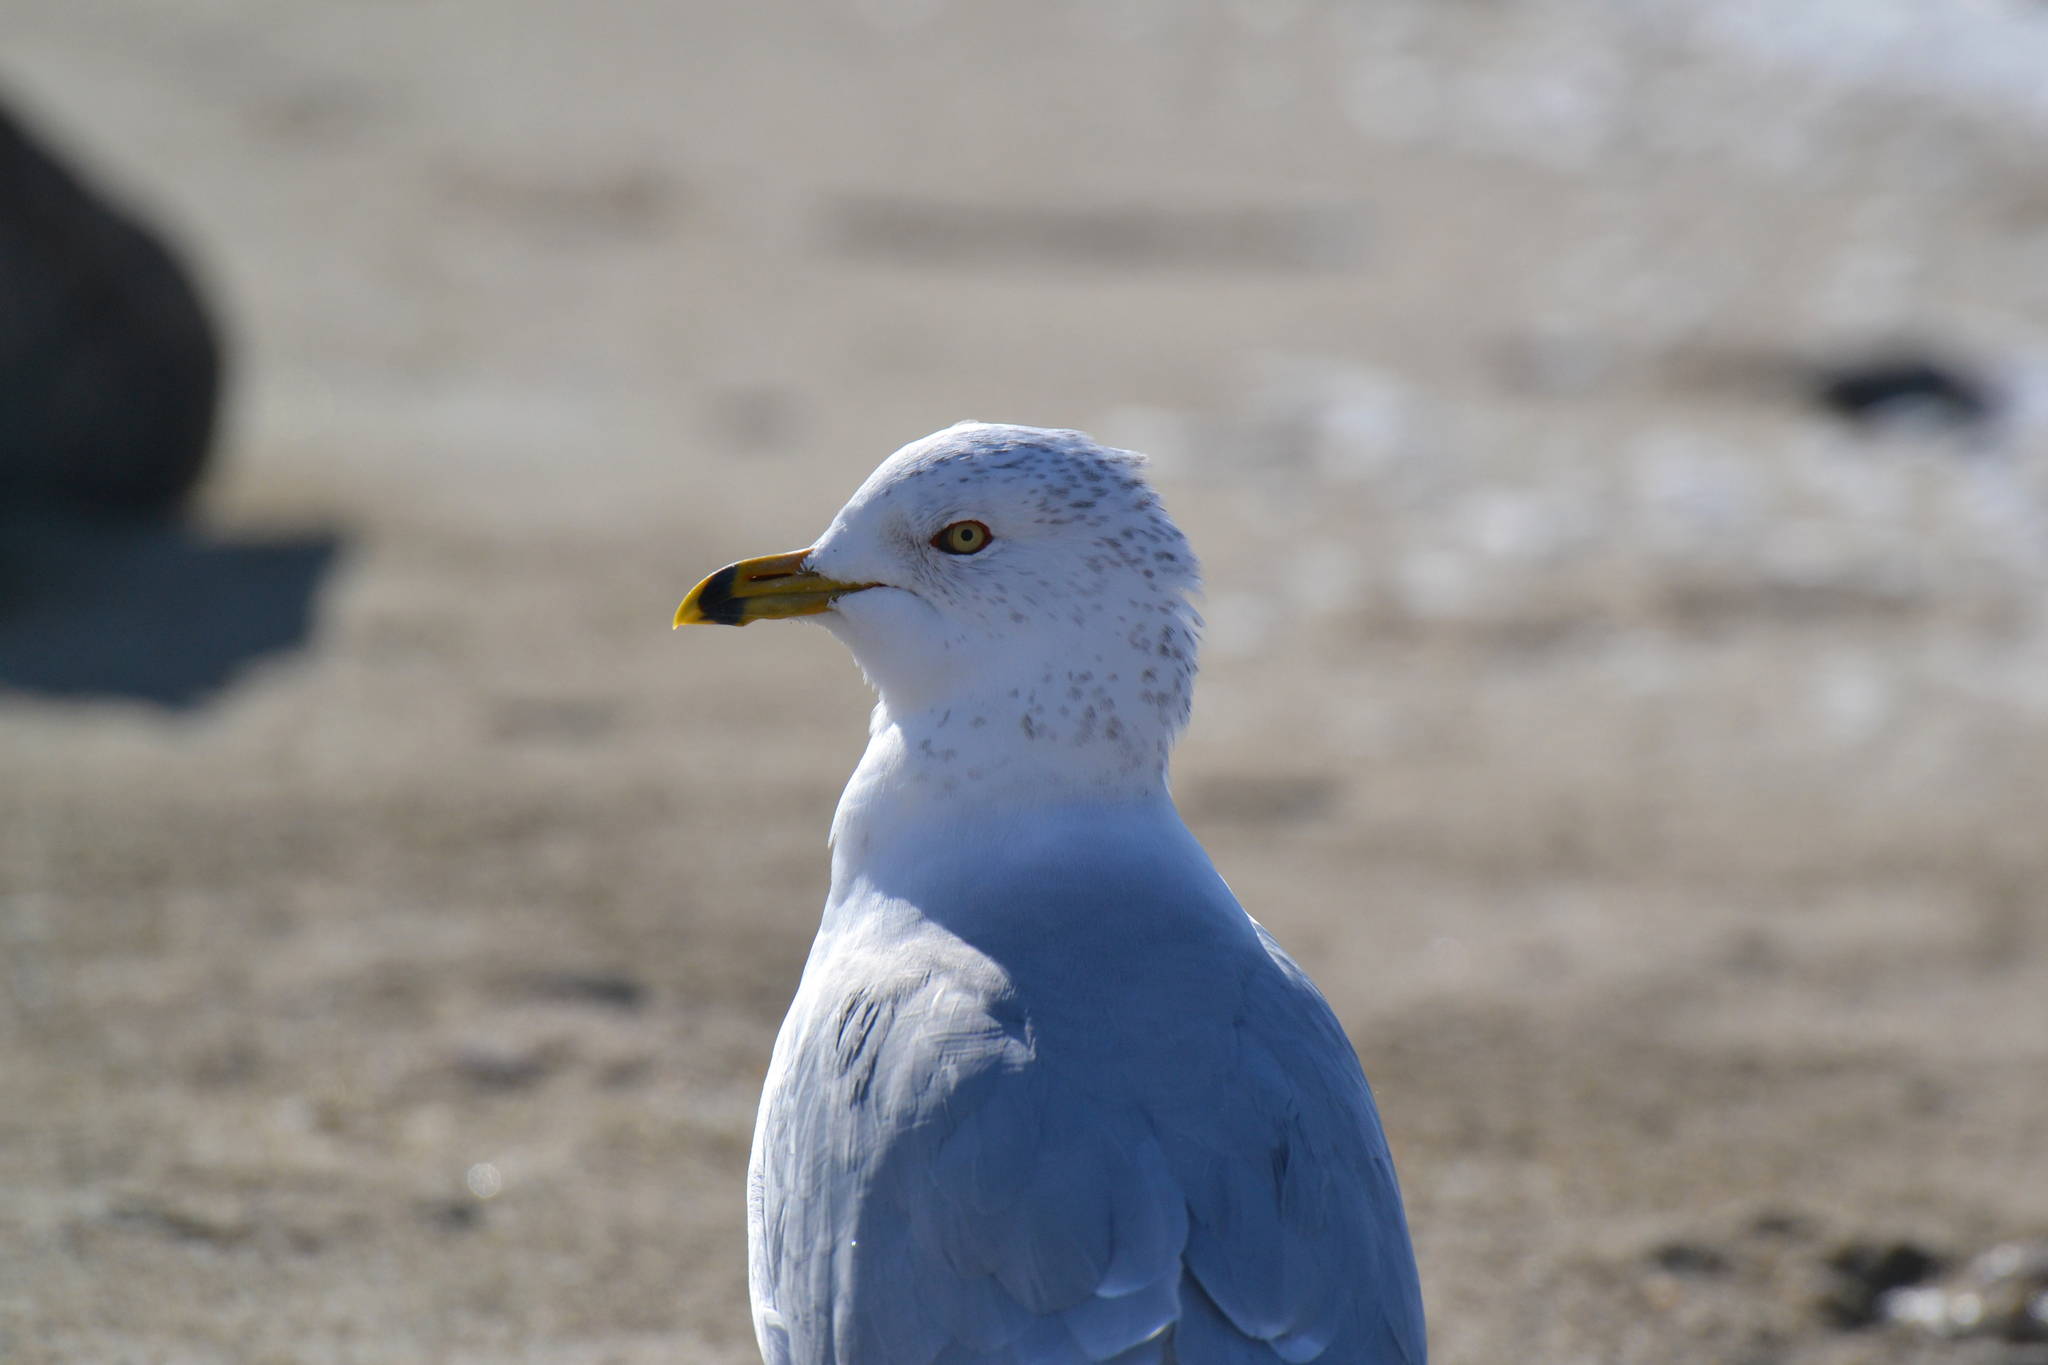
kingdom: Animalia
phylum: Chordata
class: Aves
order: Charadriiformes
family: Laridae
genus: Larus
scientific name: Larus delawarensis
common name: Ring-billed gull
